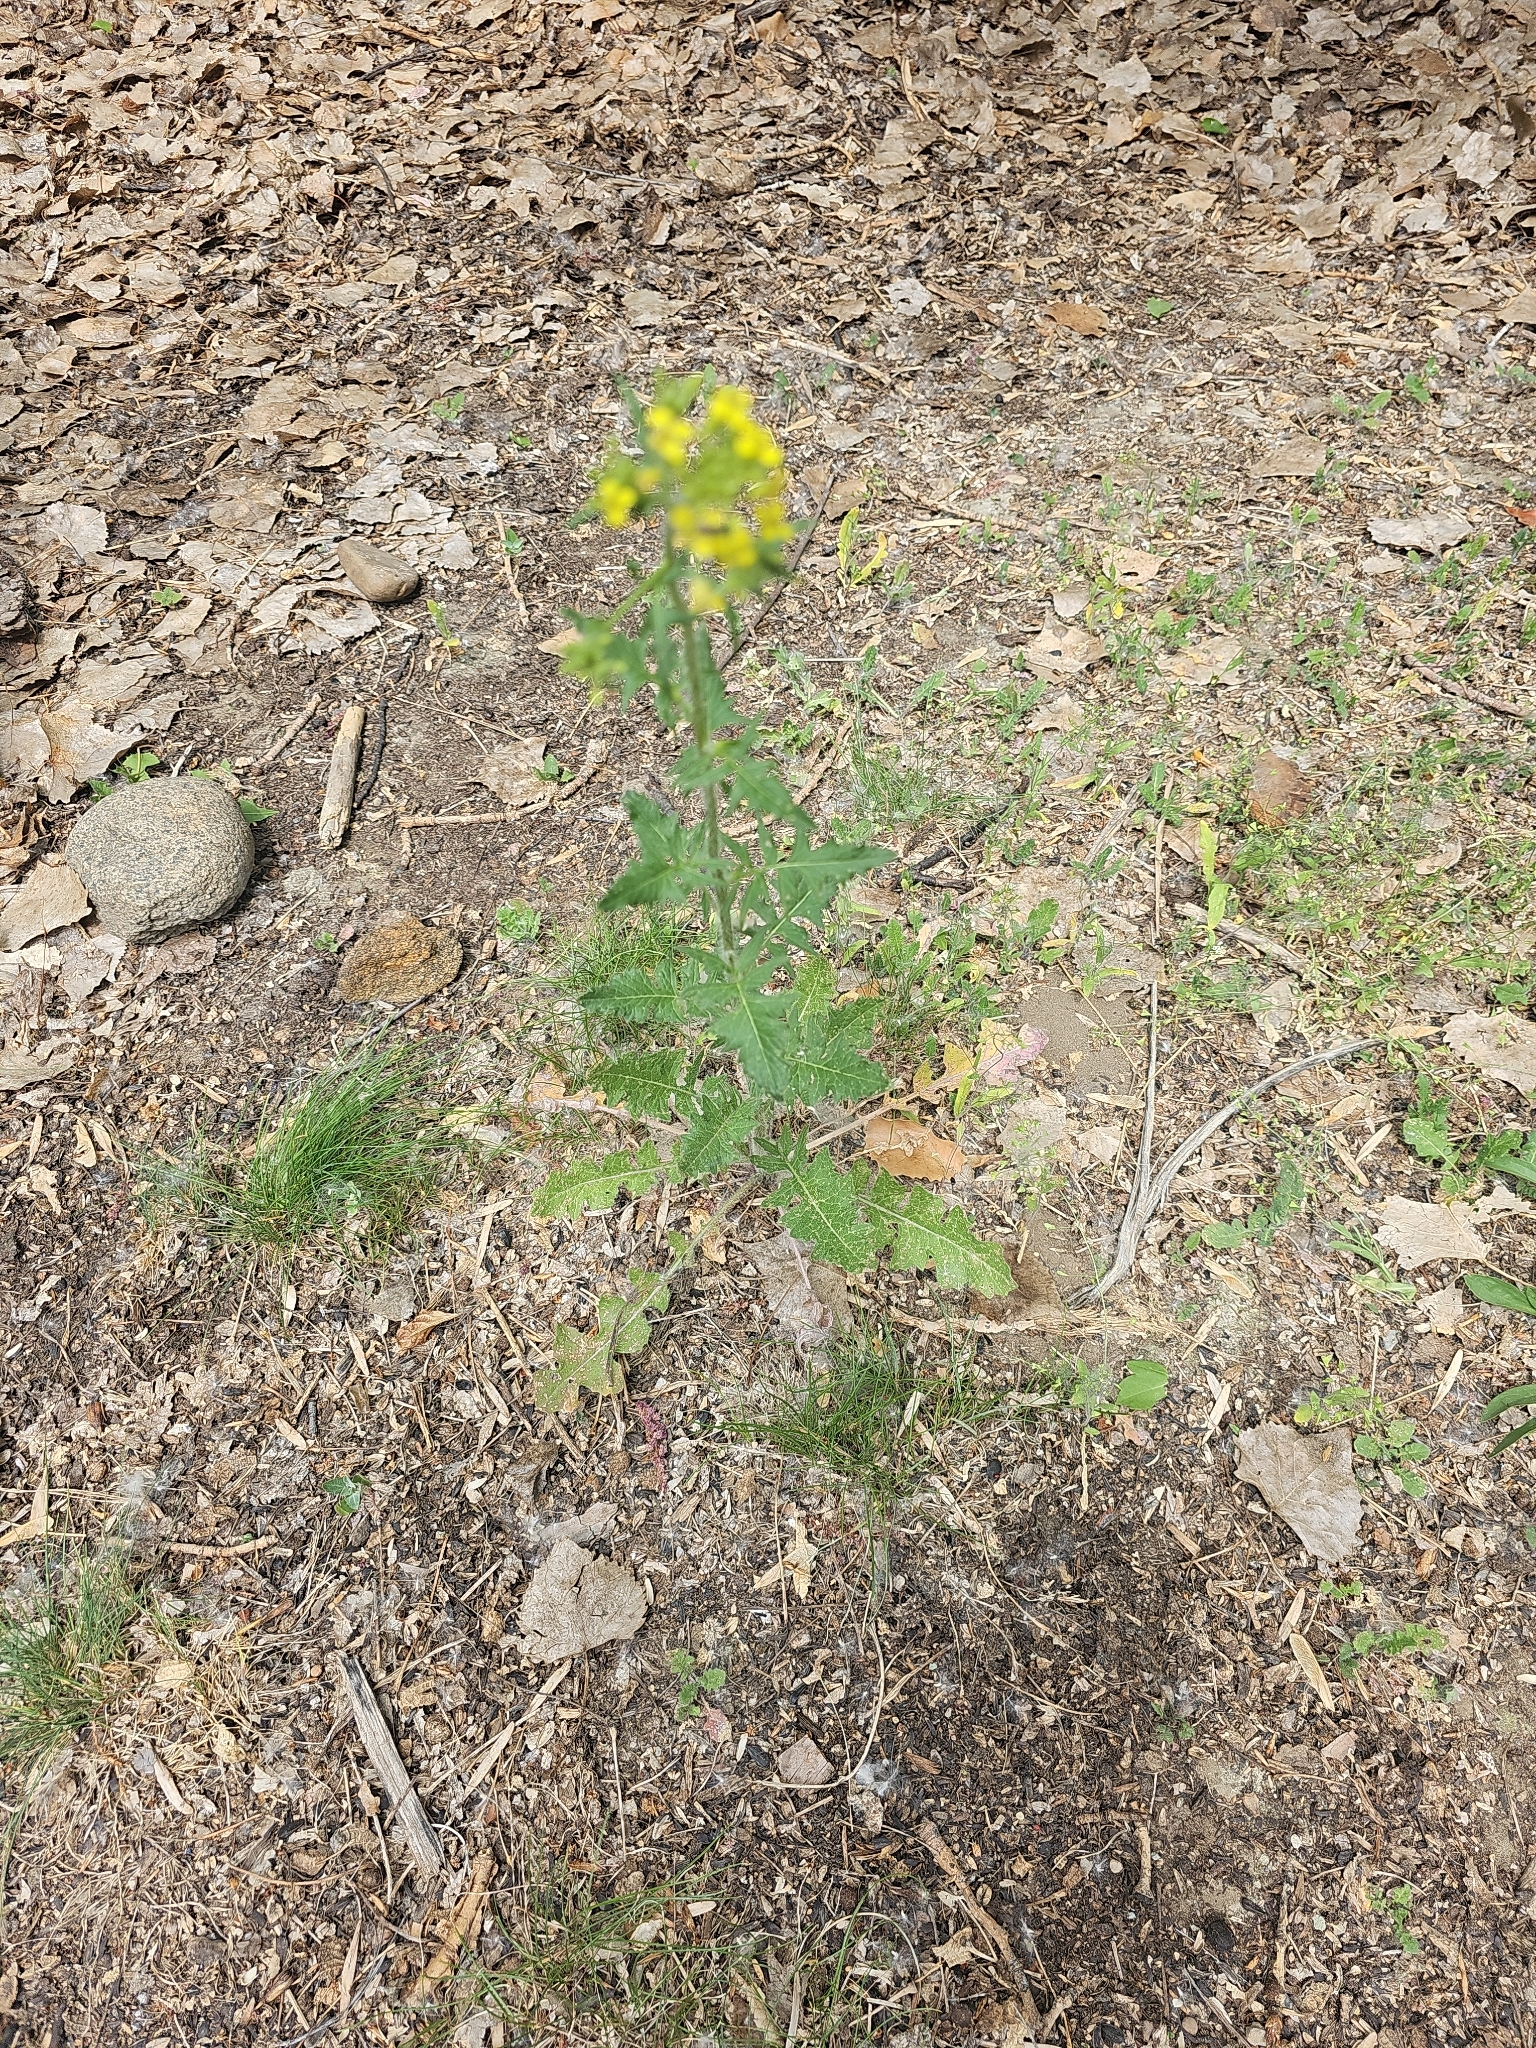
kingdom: Plantae
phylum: Tracheophyta
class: Magnoliopsida
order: Brassicales
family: Brassicaceae
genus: Sisymbrium
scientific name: Sisymbrium loeselii
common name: False london-rocket
